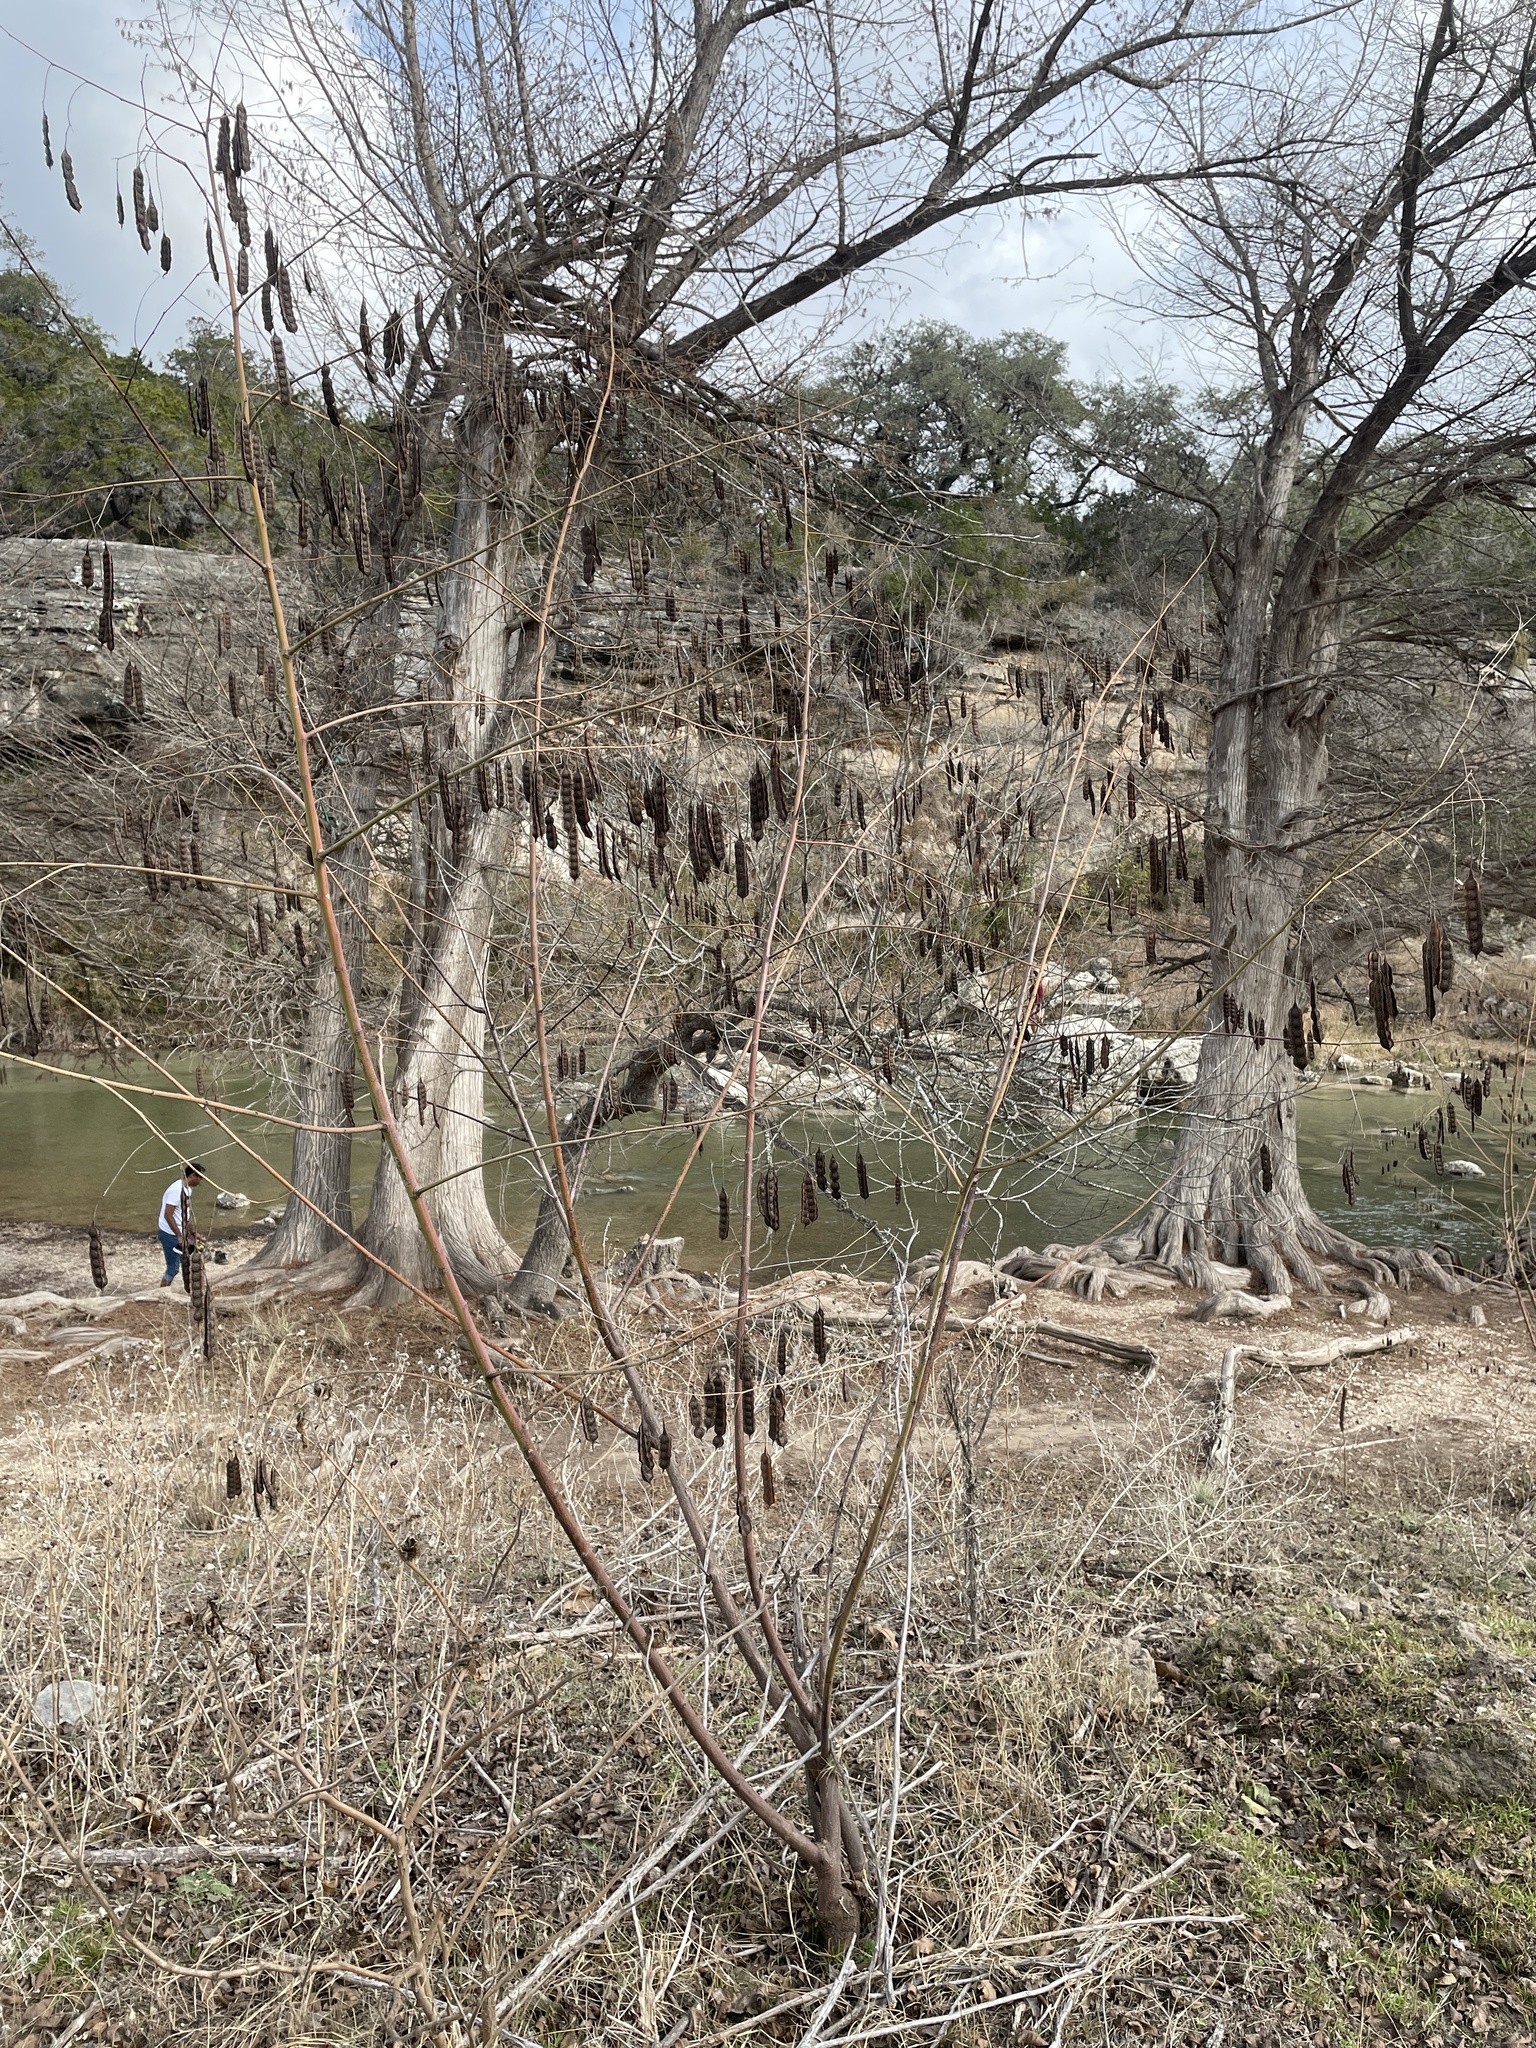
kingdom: Plantae
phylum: Tracheophyta
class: Magnoliopsida
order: Fabales
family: Fabaceae
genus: Sesbania
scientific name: Sesbania drummondii
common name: Poison-bean
